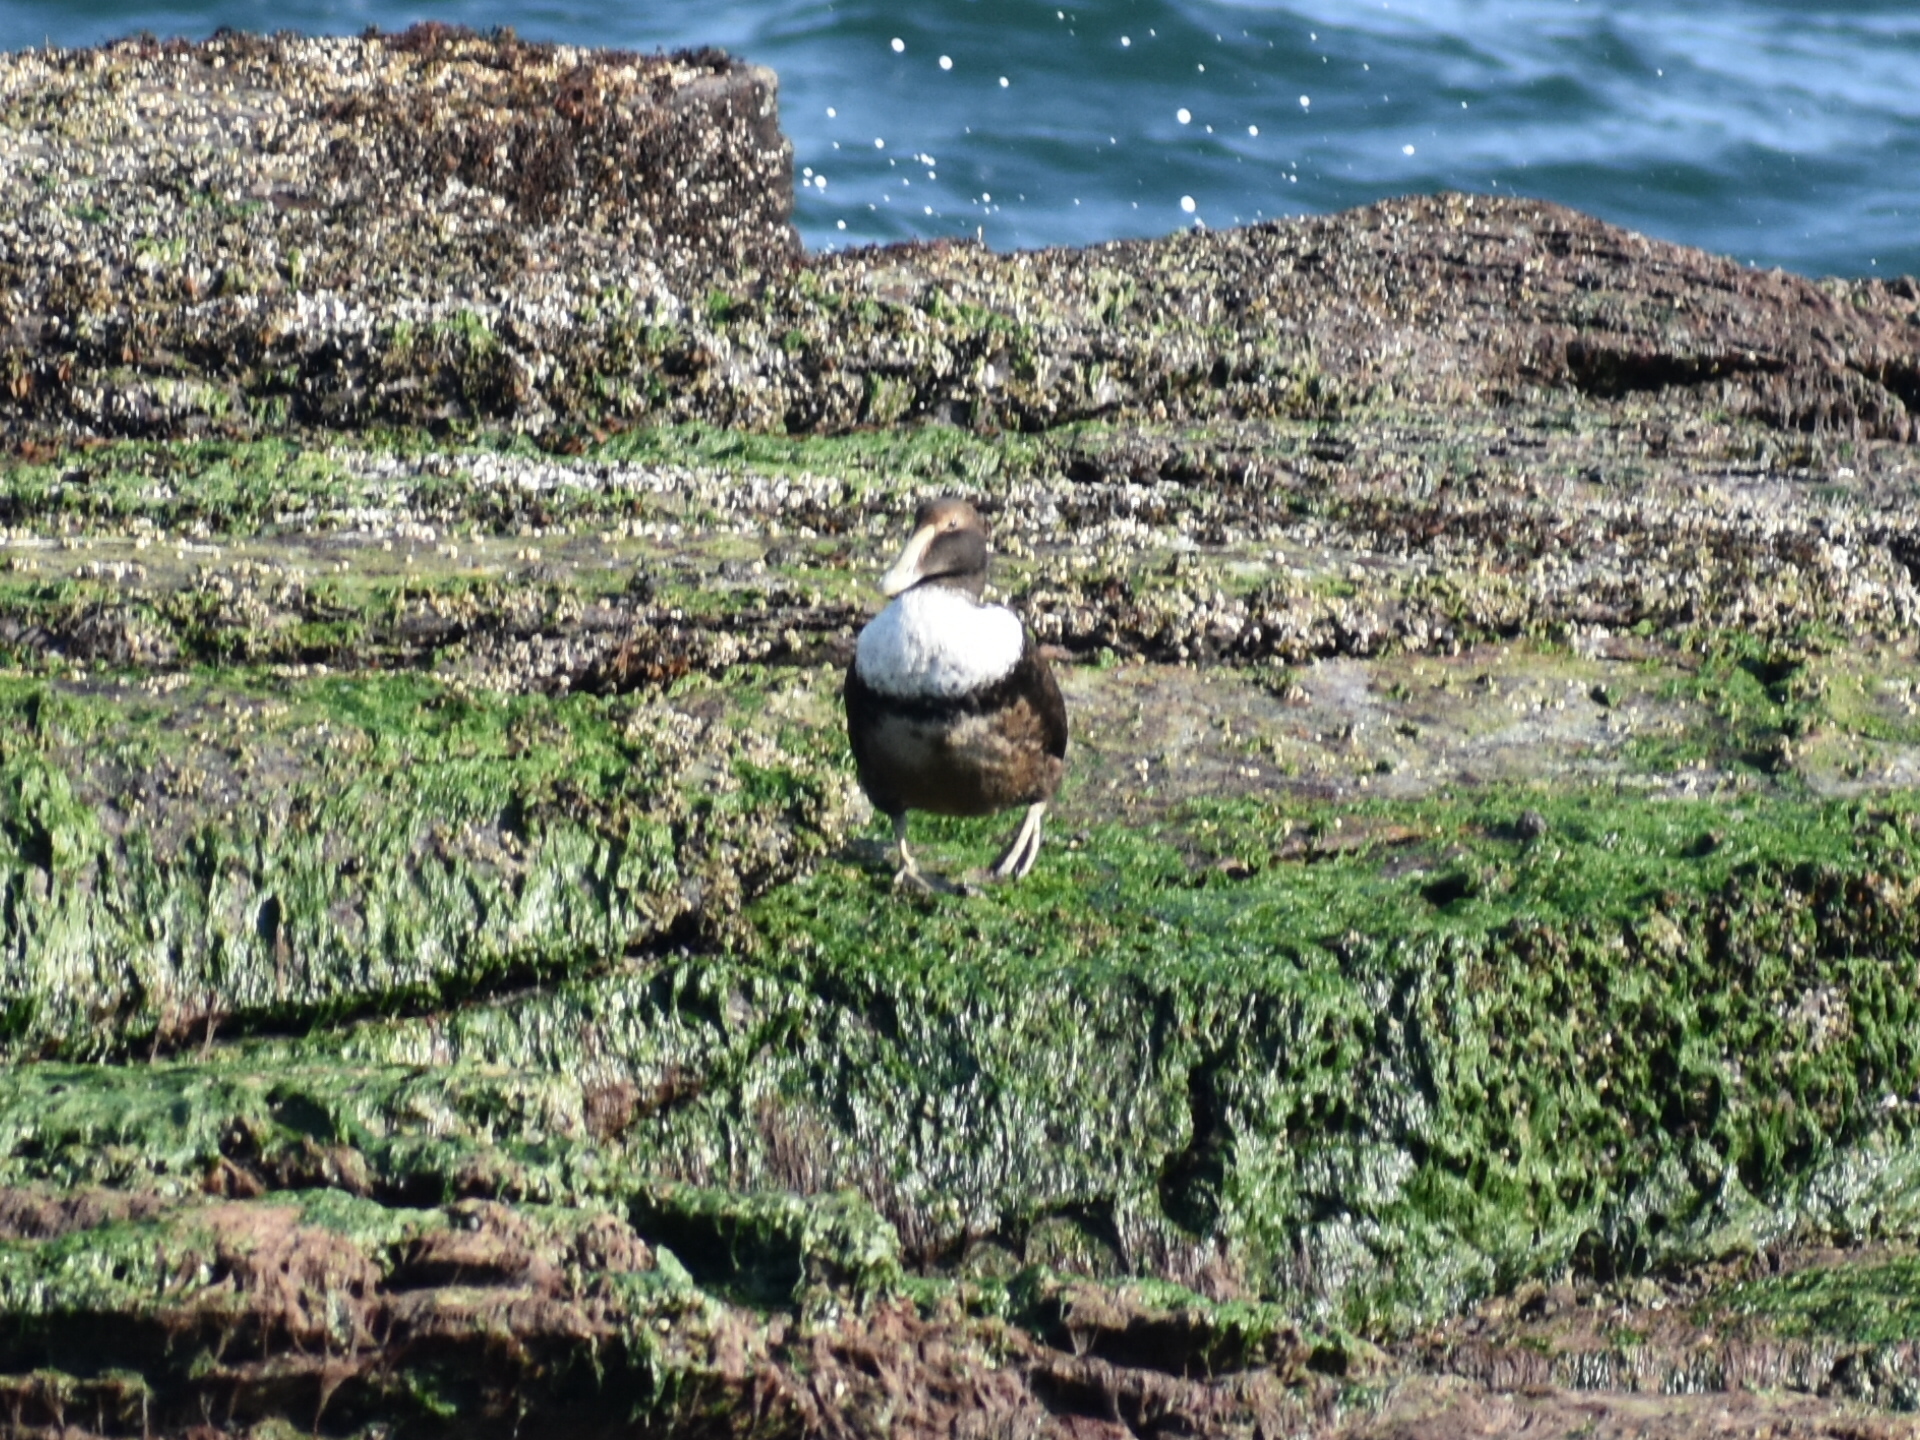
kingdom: Animalia
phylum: Chordata
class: Aves
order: Anseriformes
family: Anatidae
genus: Somateria
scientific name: Somateria mollissima
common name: Common eider
